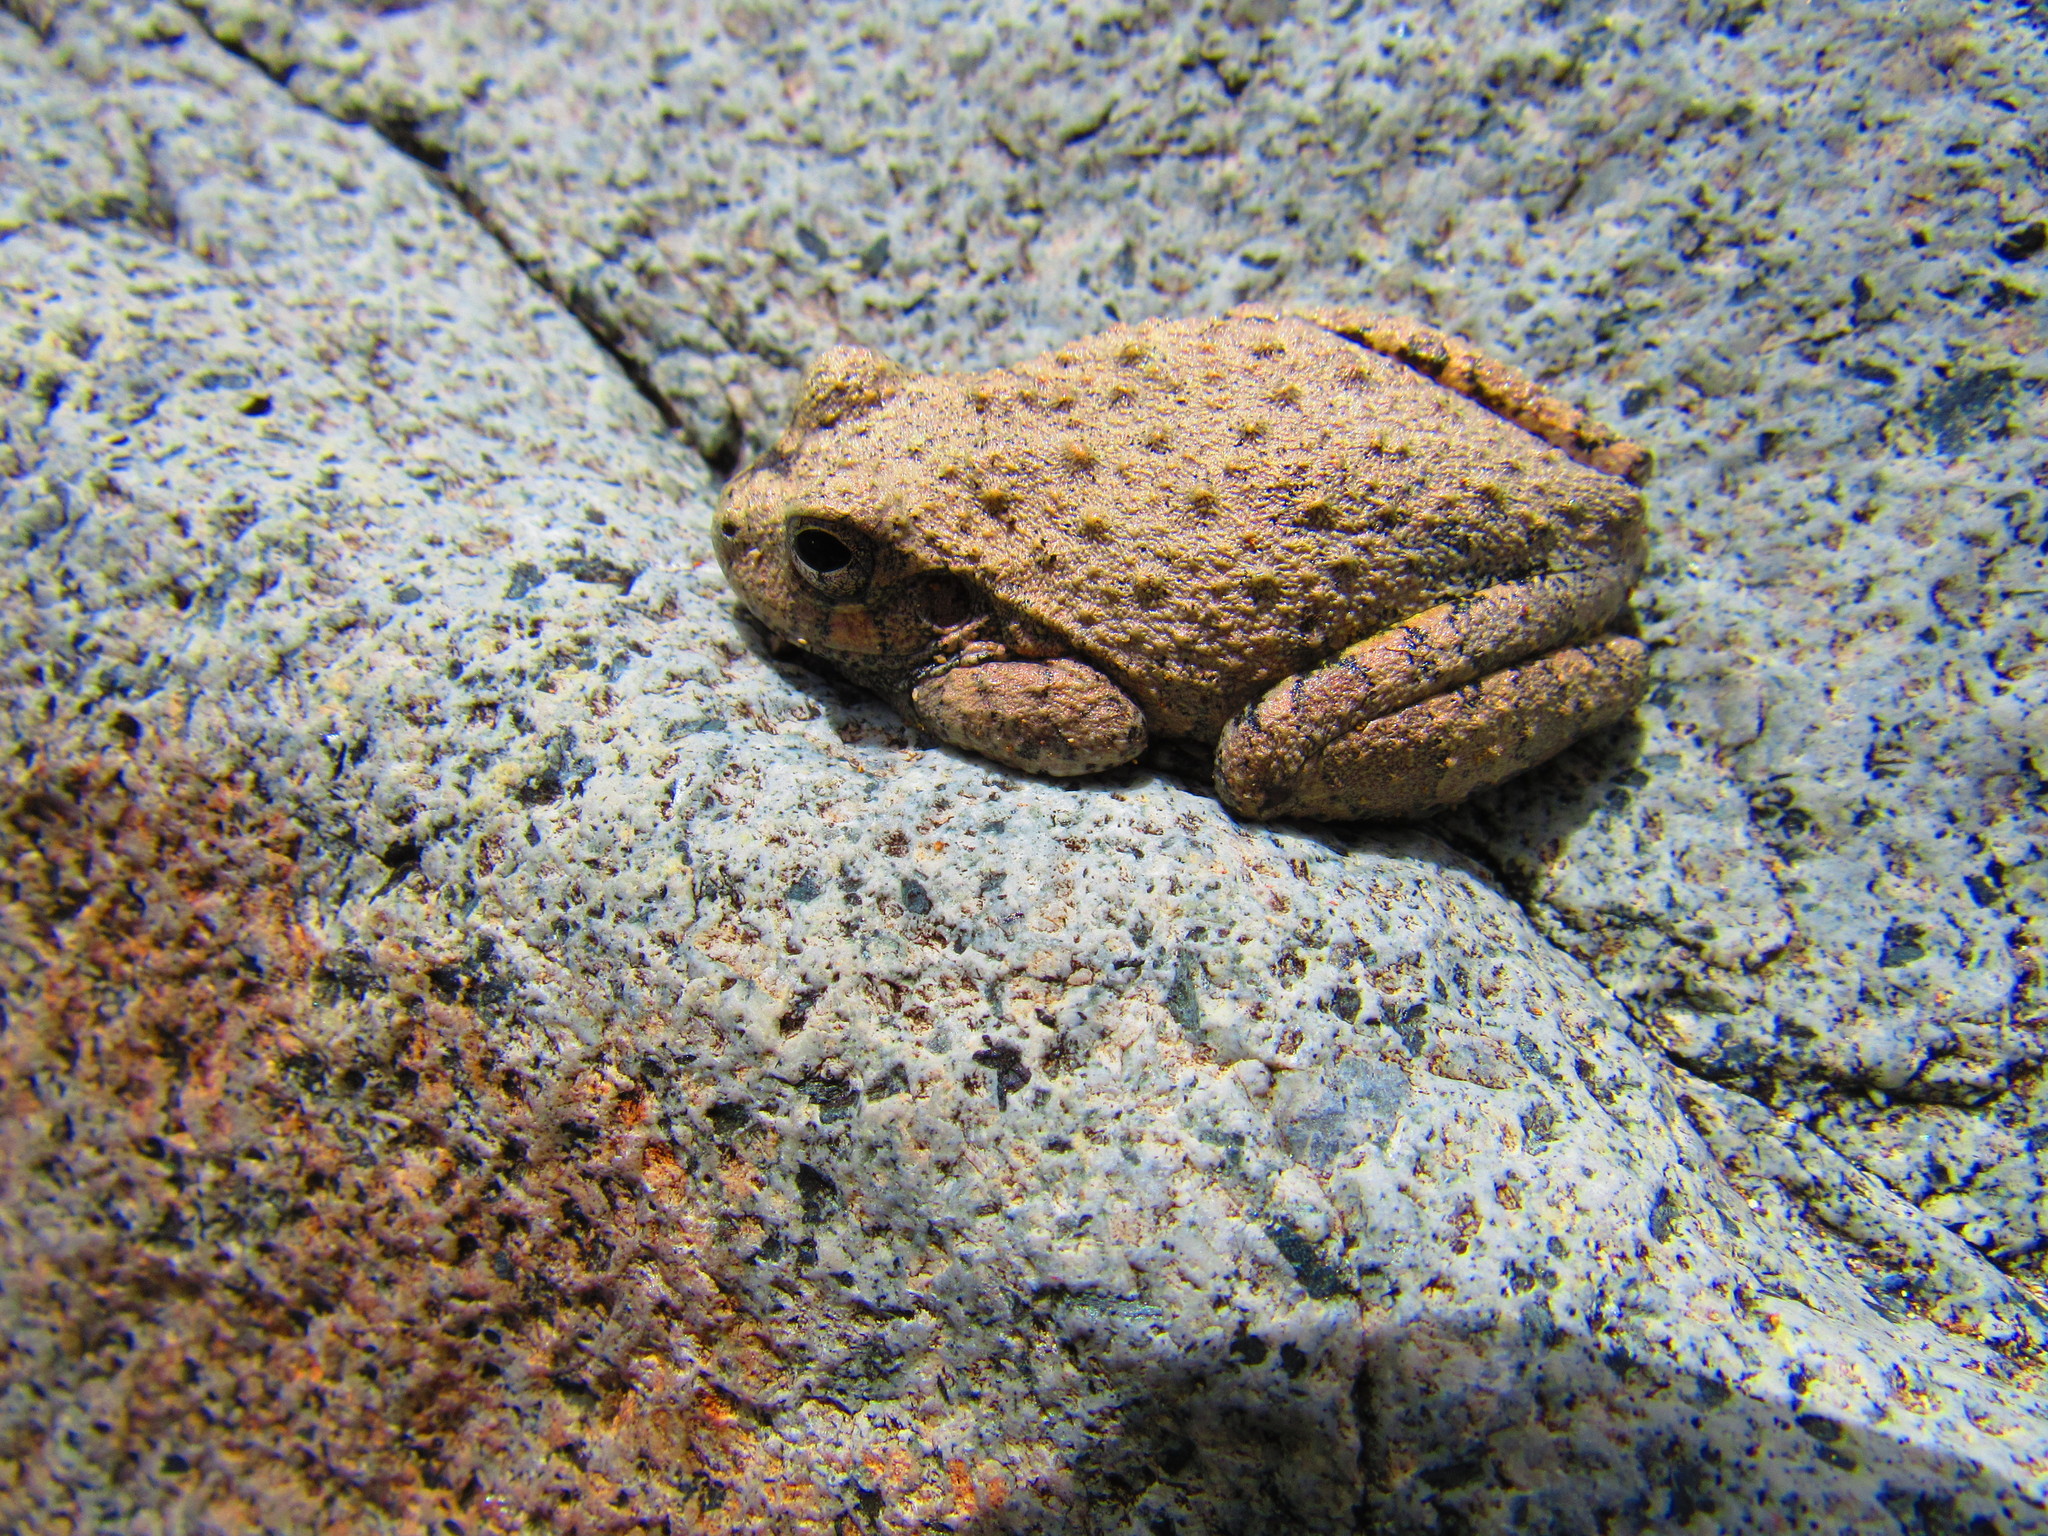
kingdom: Animalia
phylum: Chordata
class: Amphibia
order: Anura
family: Hylidae
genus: Dryophytes
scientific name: Dryophytes arenicolor
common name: Canyon treefrog
